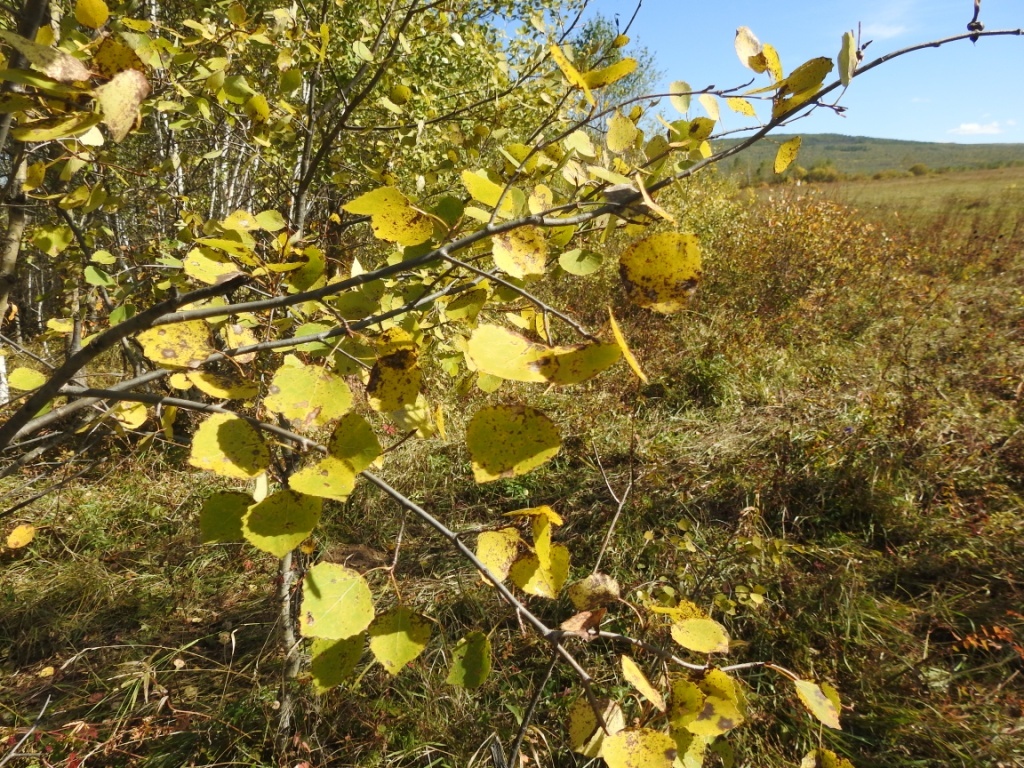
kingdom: Plantae
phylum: Tracheophyta
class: Magnoliopsida
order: Malpighiales
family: Salicaceae
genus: Populus
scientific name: Populus tremula
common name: European aspen
